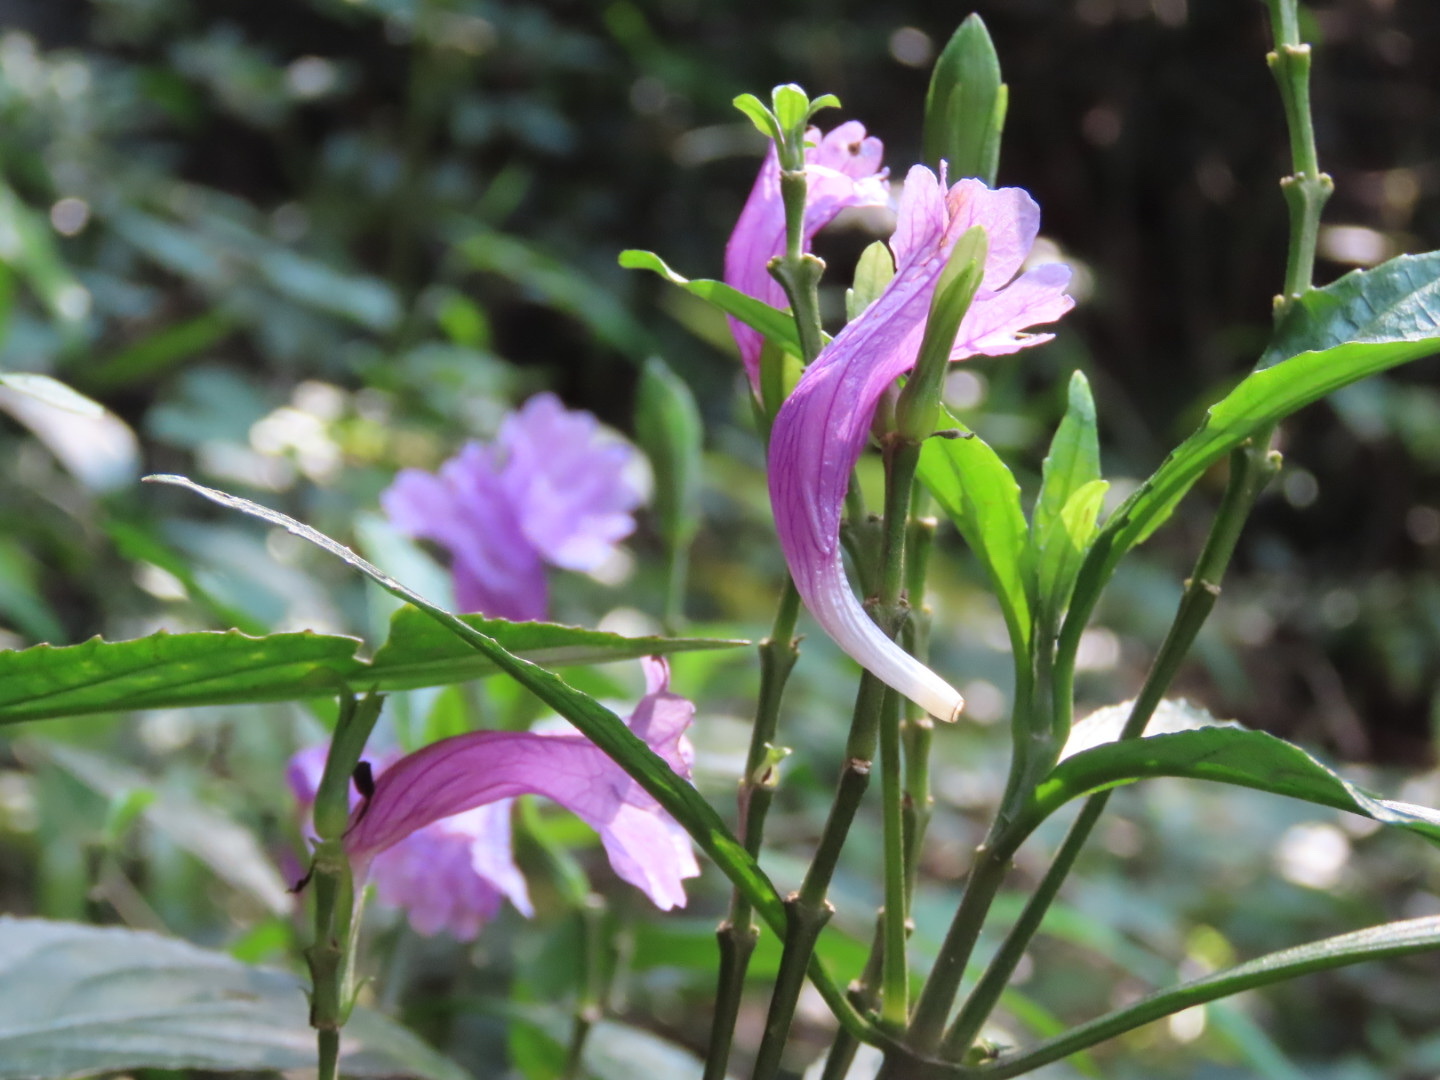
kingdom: Plantae
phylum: Tracheophyta
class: Magnoliopsida
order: Lamiales
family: Acanthaceae
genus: Strobilanthes
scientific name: Strobilanthes cusia
